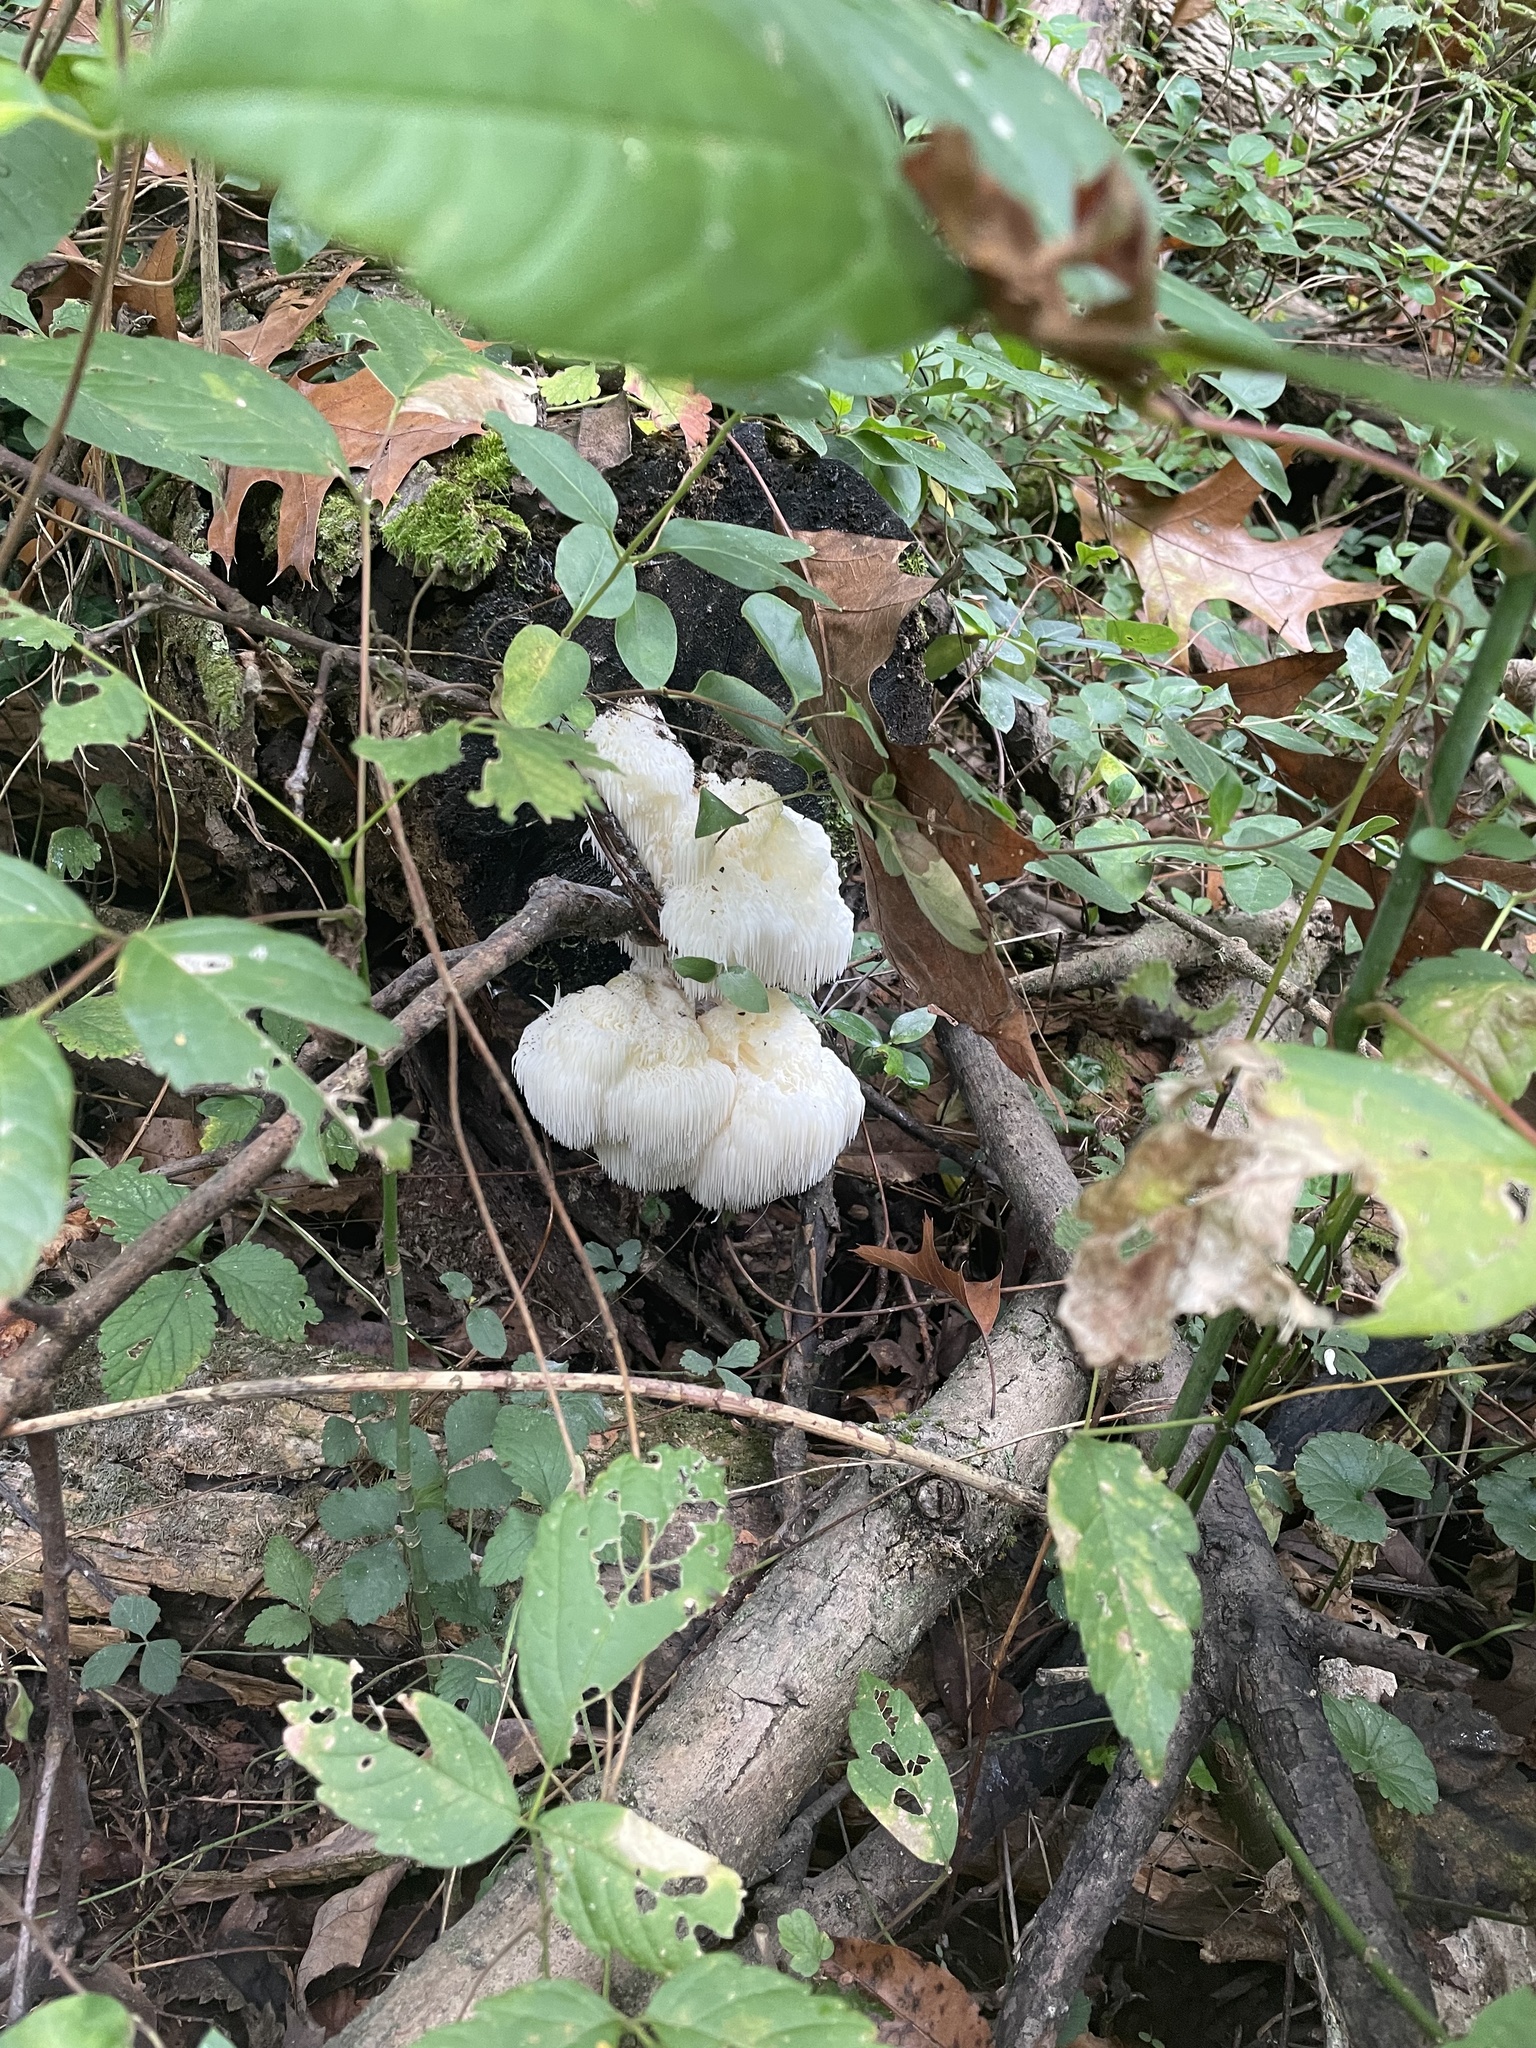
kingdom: Fungi
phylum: Basidiomycota
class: Agaricomycetes
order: Russulales
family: Hericiaceae
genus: Hericium
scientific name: Hericium erinaceus
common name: Bearded tooth
